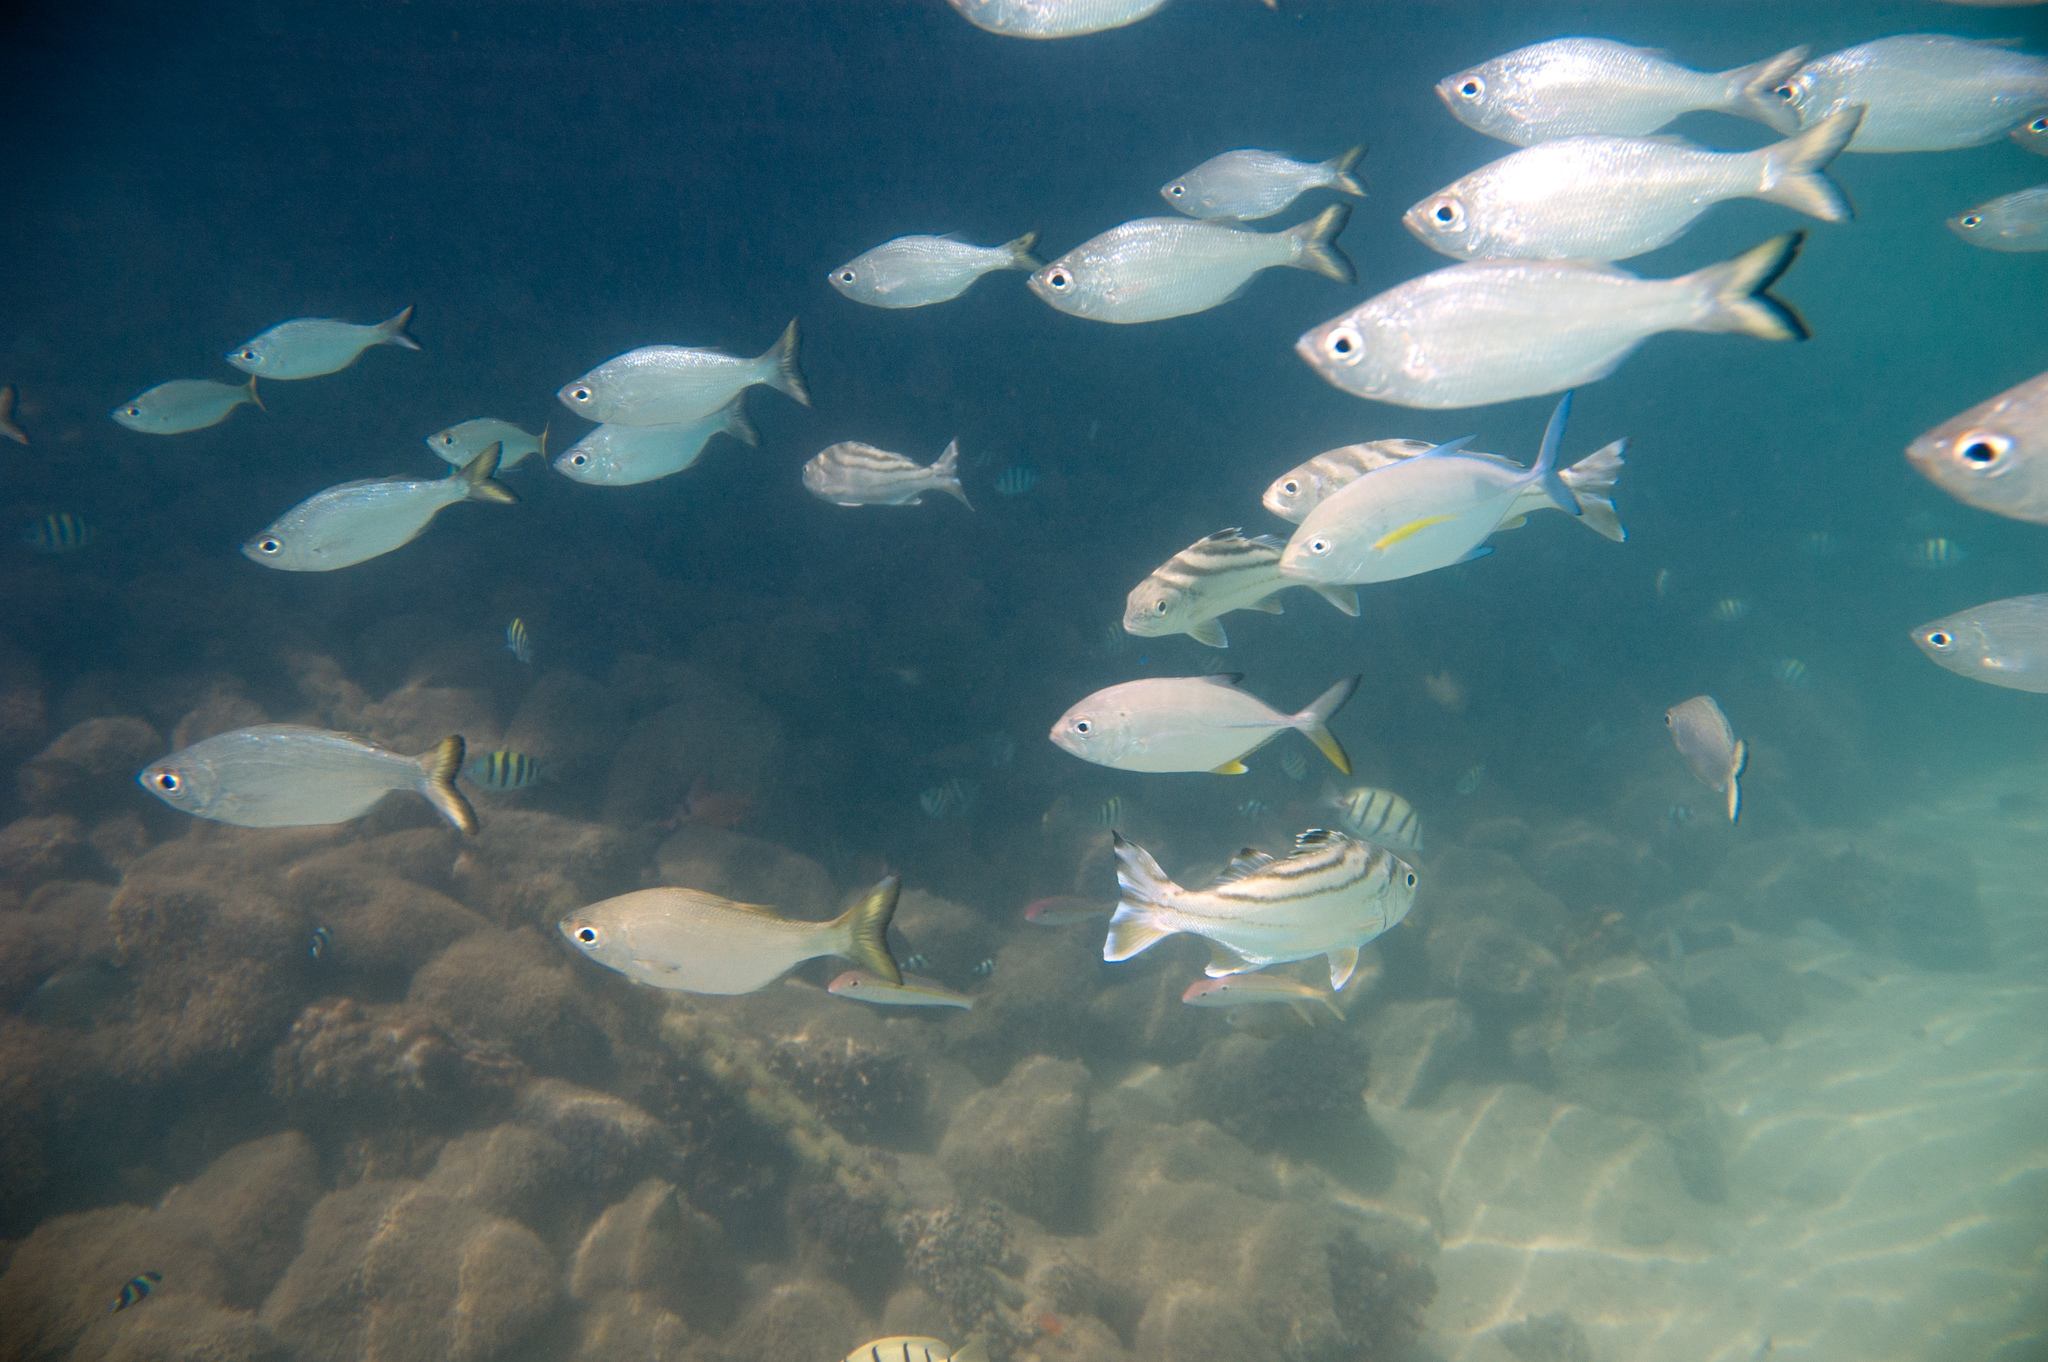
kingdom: Animalia
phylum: Chordata
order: Perciformes
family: Kuhliidae
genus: Kuhlia
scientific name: Kuhlia sandvicensis
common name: Hawaiian flagtail
